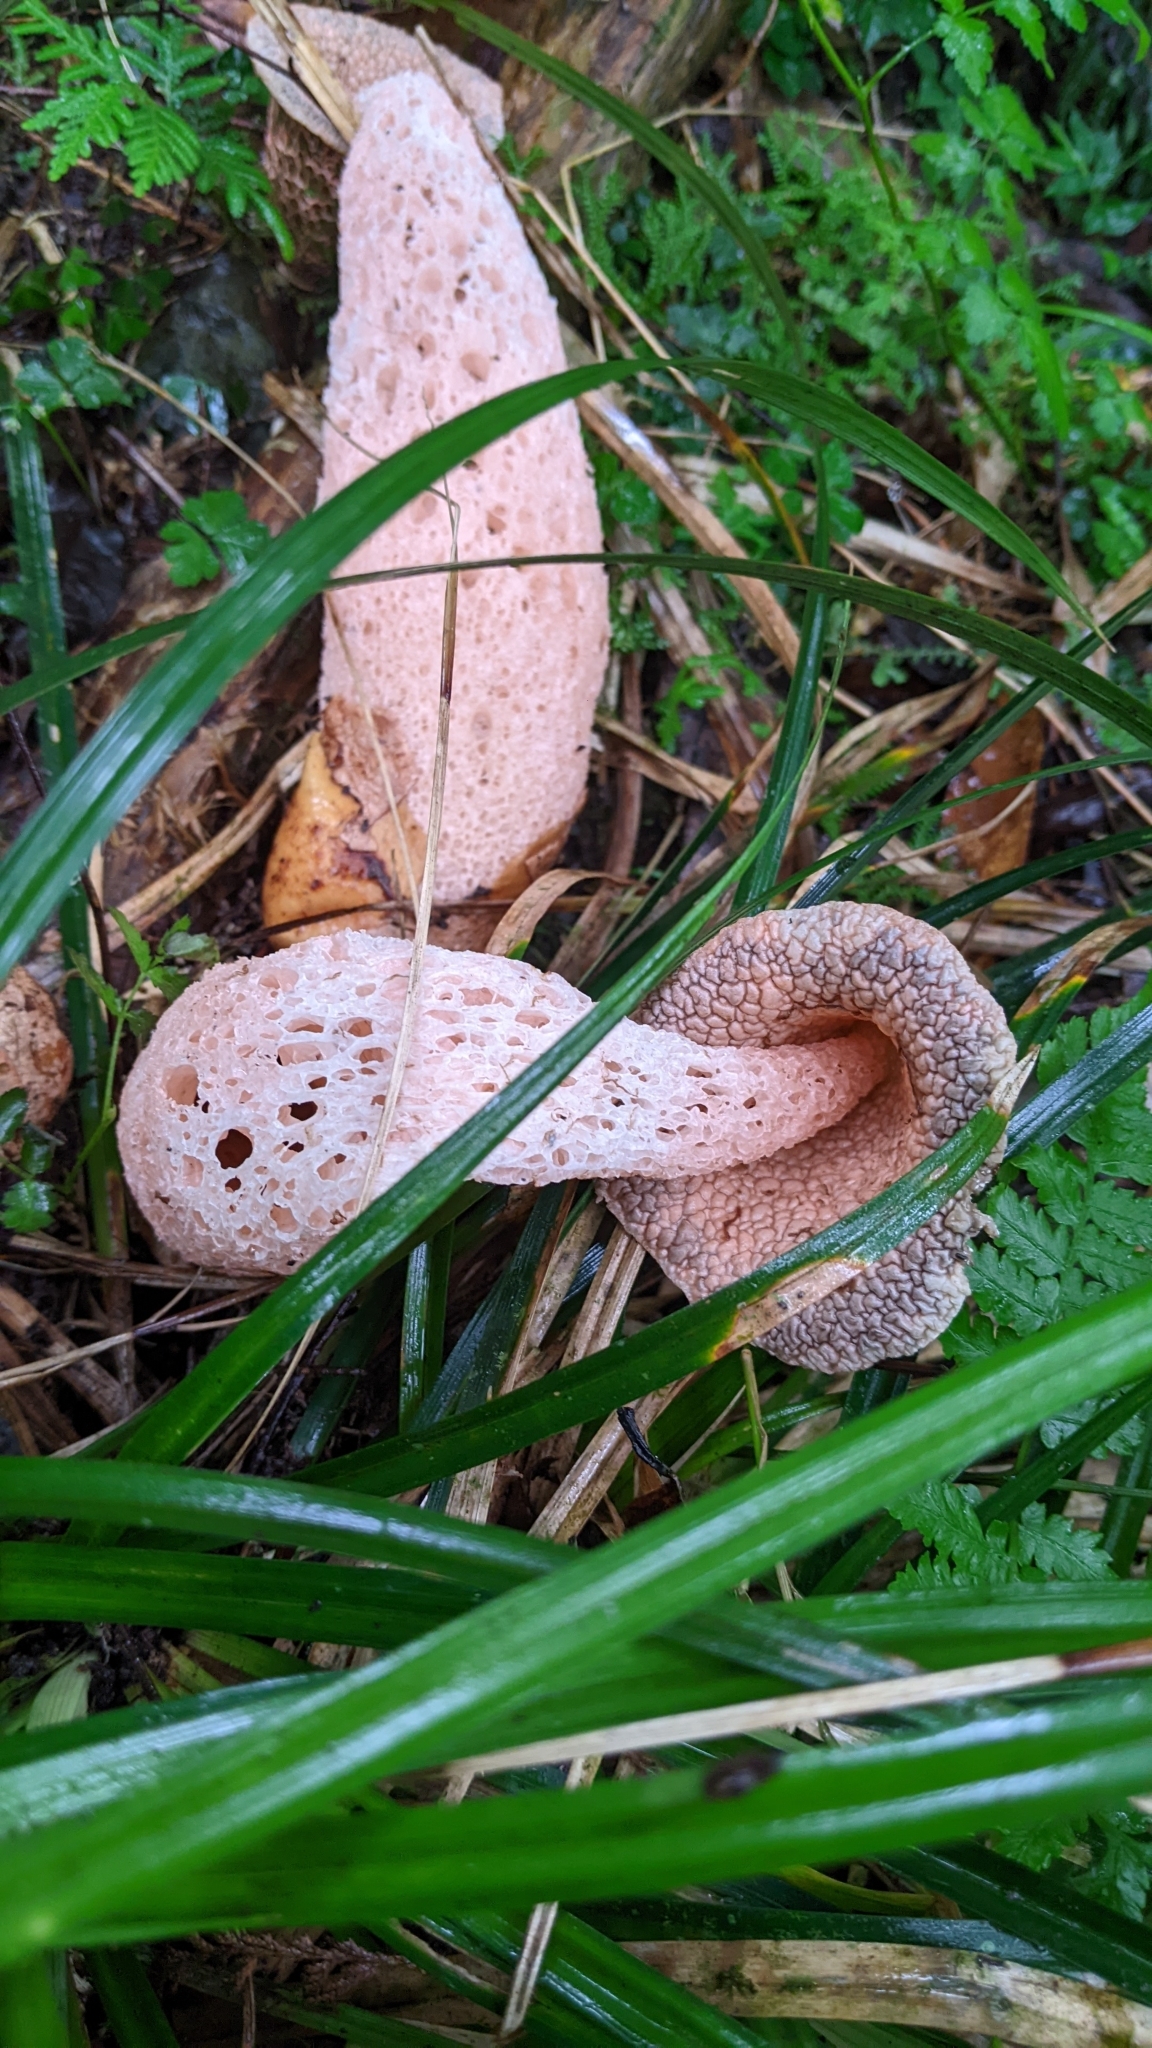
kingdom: Fungi
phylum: Basidiomycota
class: Agaricomycetes
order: Phallales
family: Phallaceae
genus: Phallus
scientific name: Phallus formosanus
